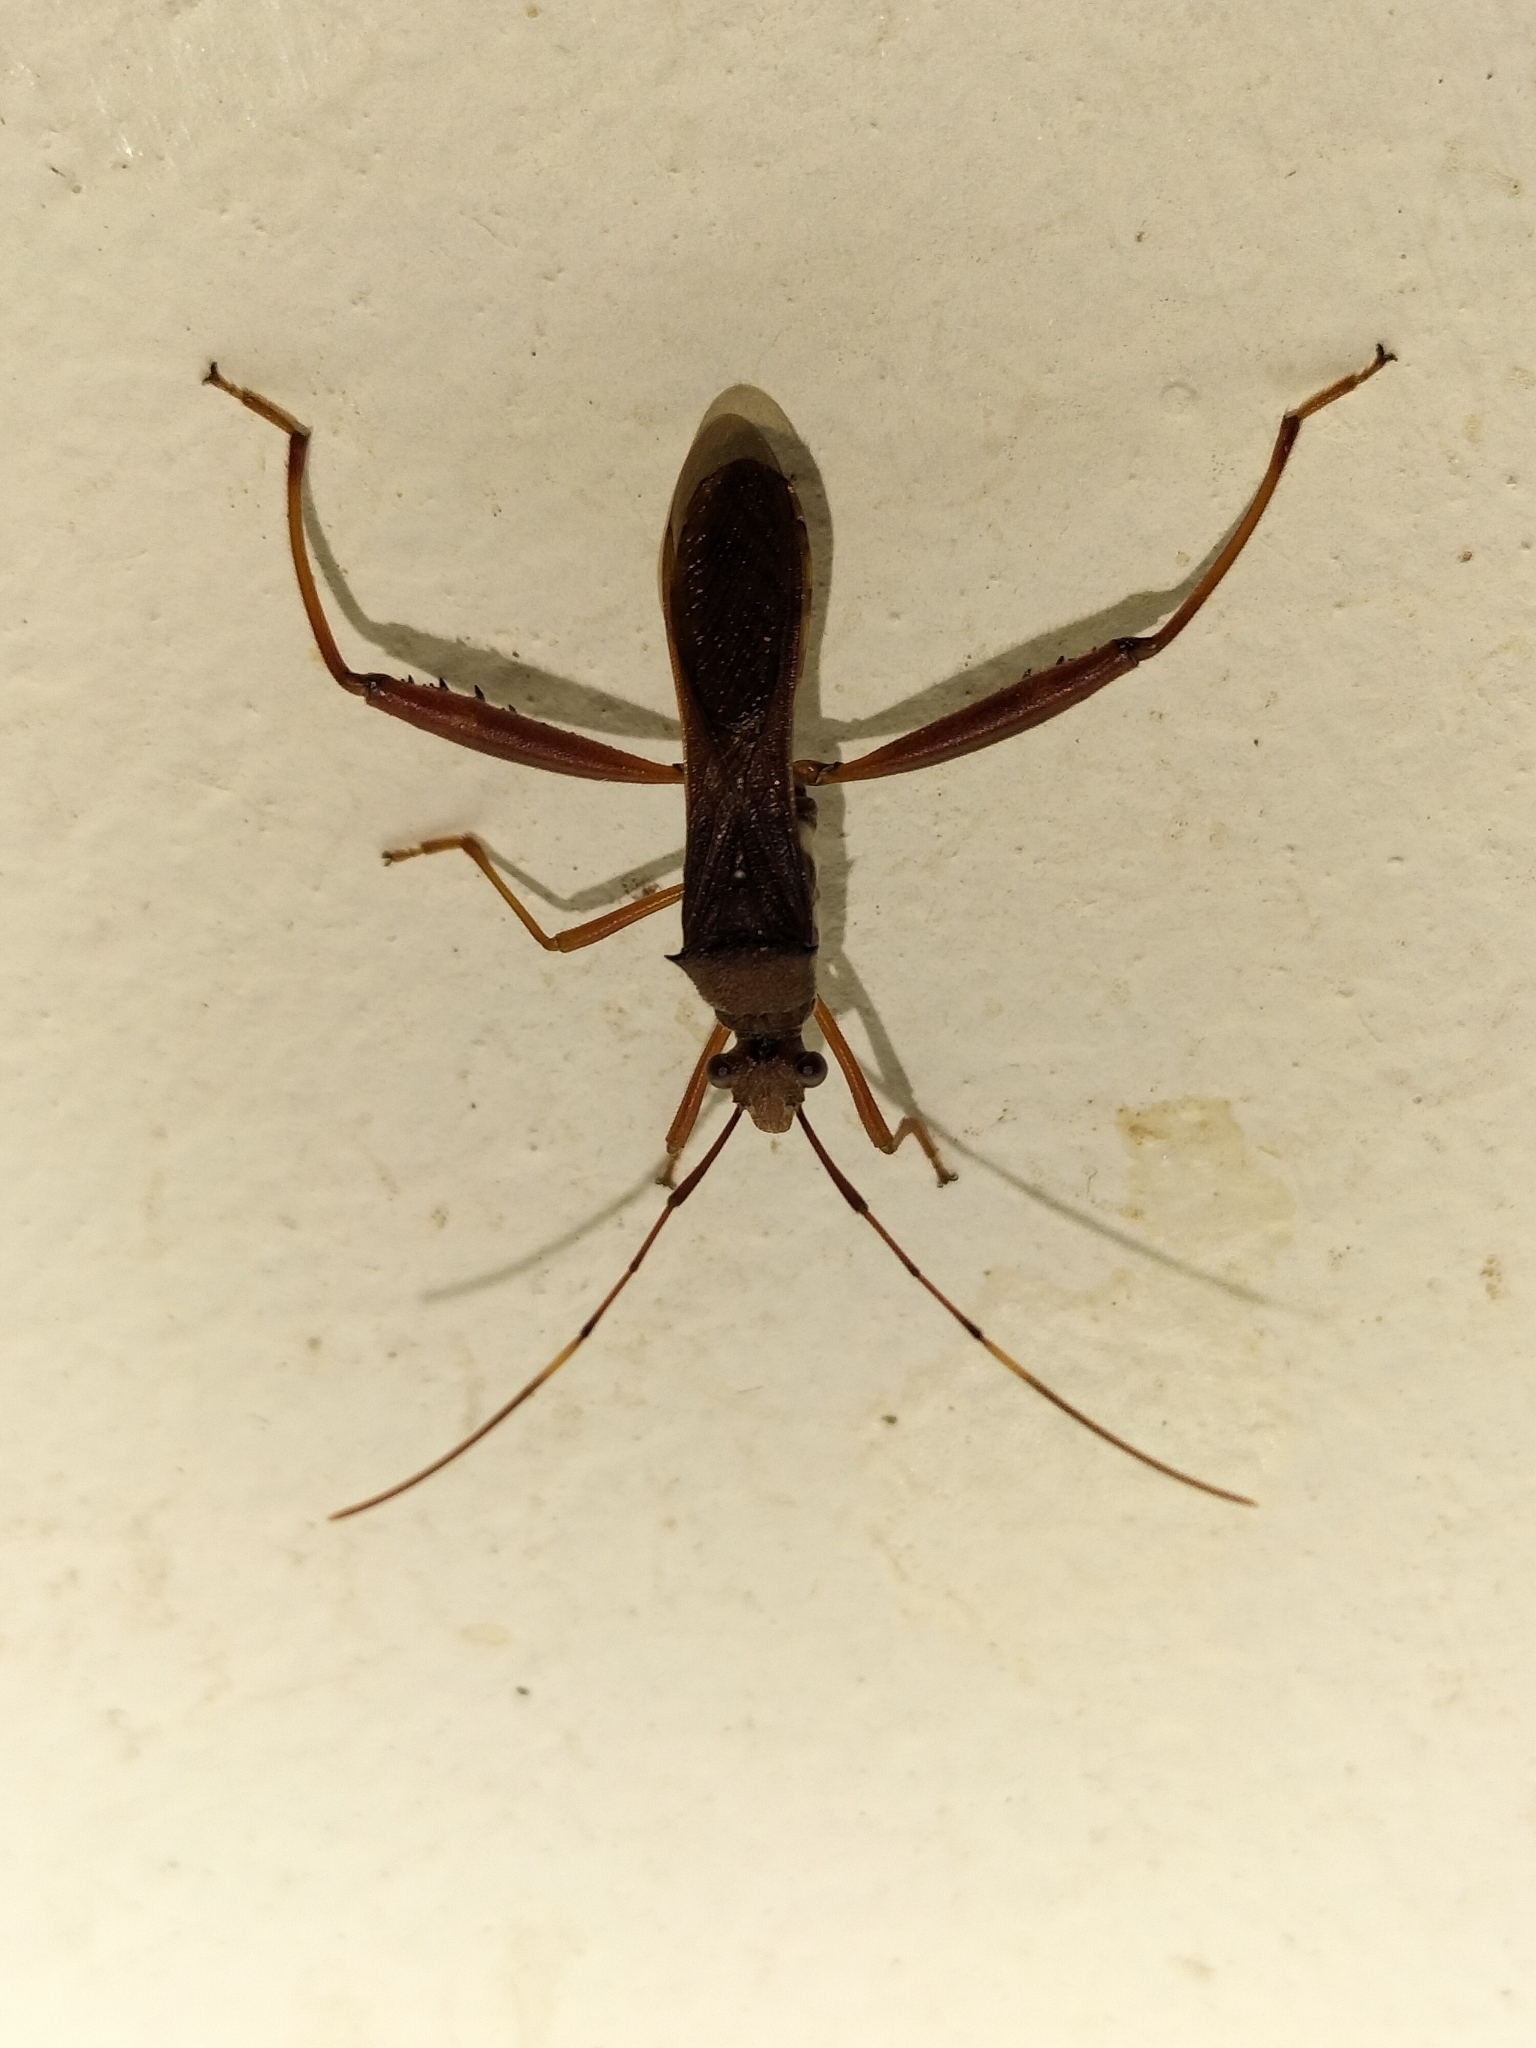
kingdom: Animalia
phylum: Arthropoda
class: Insecta
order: Hemiptera
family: Alydidae
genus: Riptortus
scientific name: Riptortus abdominalis
